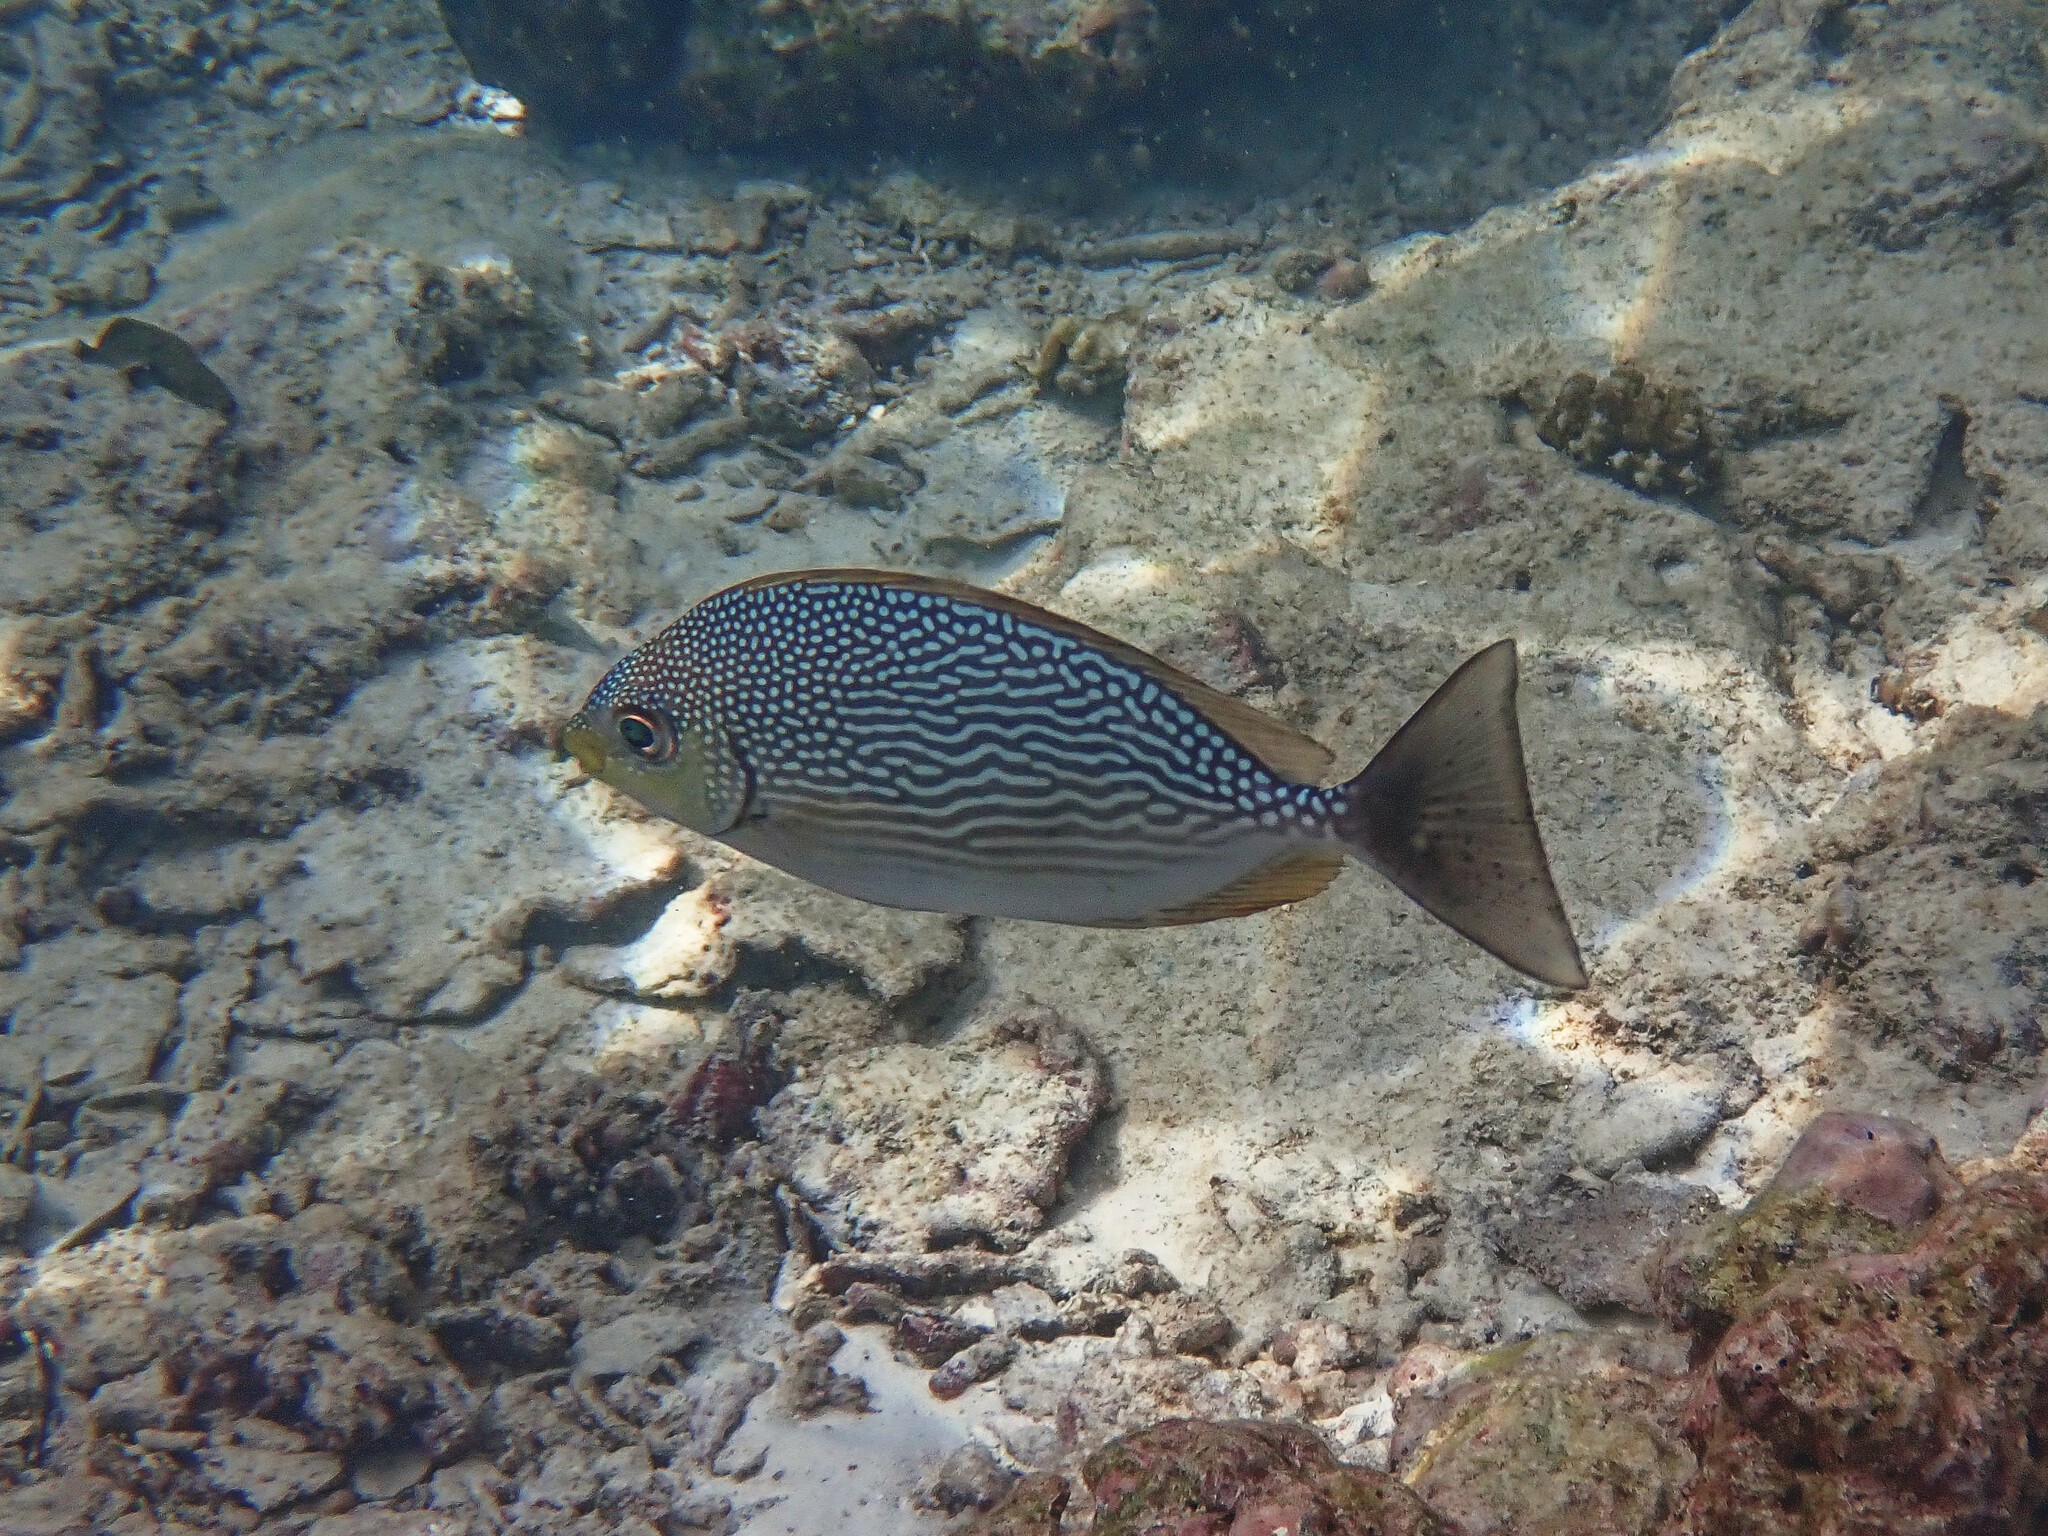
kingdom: Animalia
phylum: Chordata
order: Perciformes
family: Siganidae
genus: Siganus
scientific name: Siganus javus
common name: Java rabbitfish
